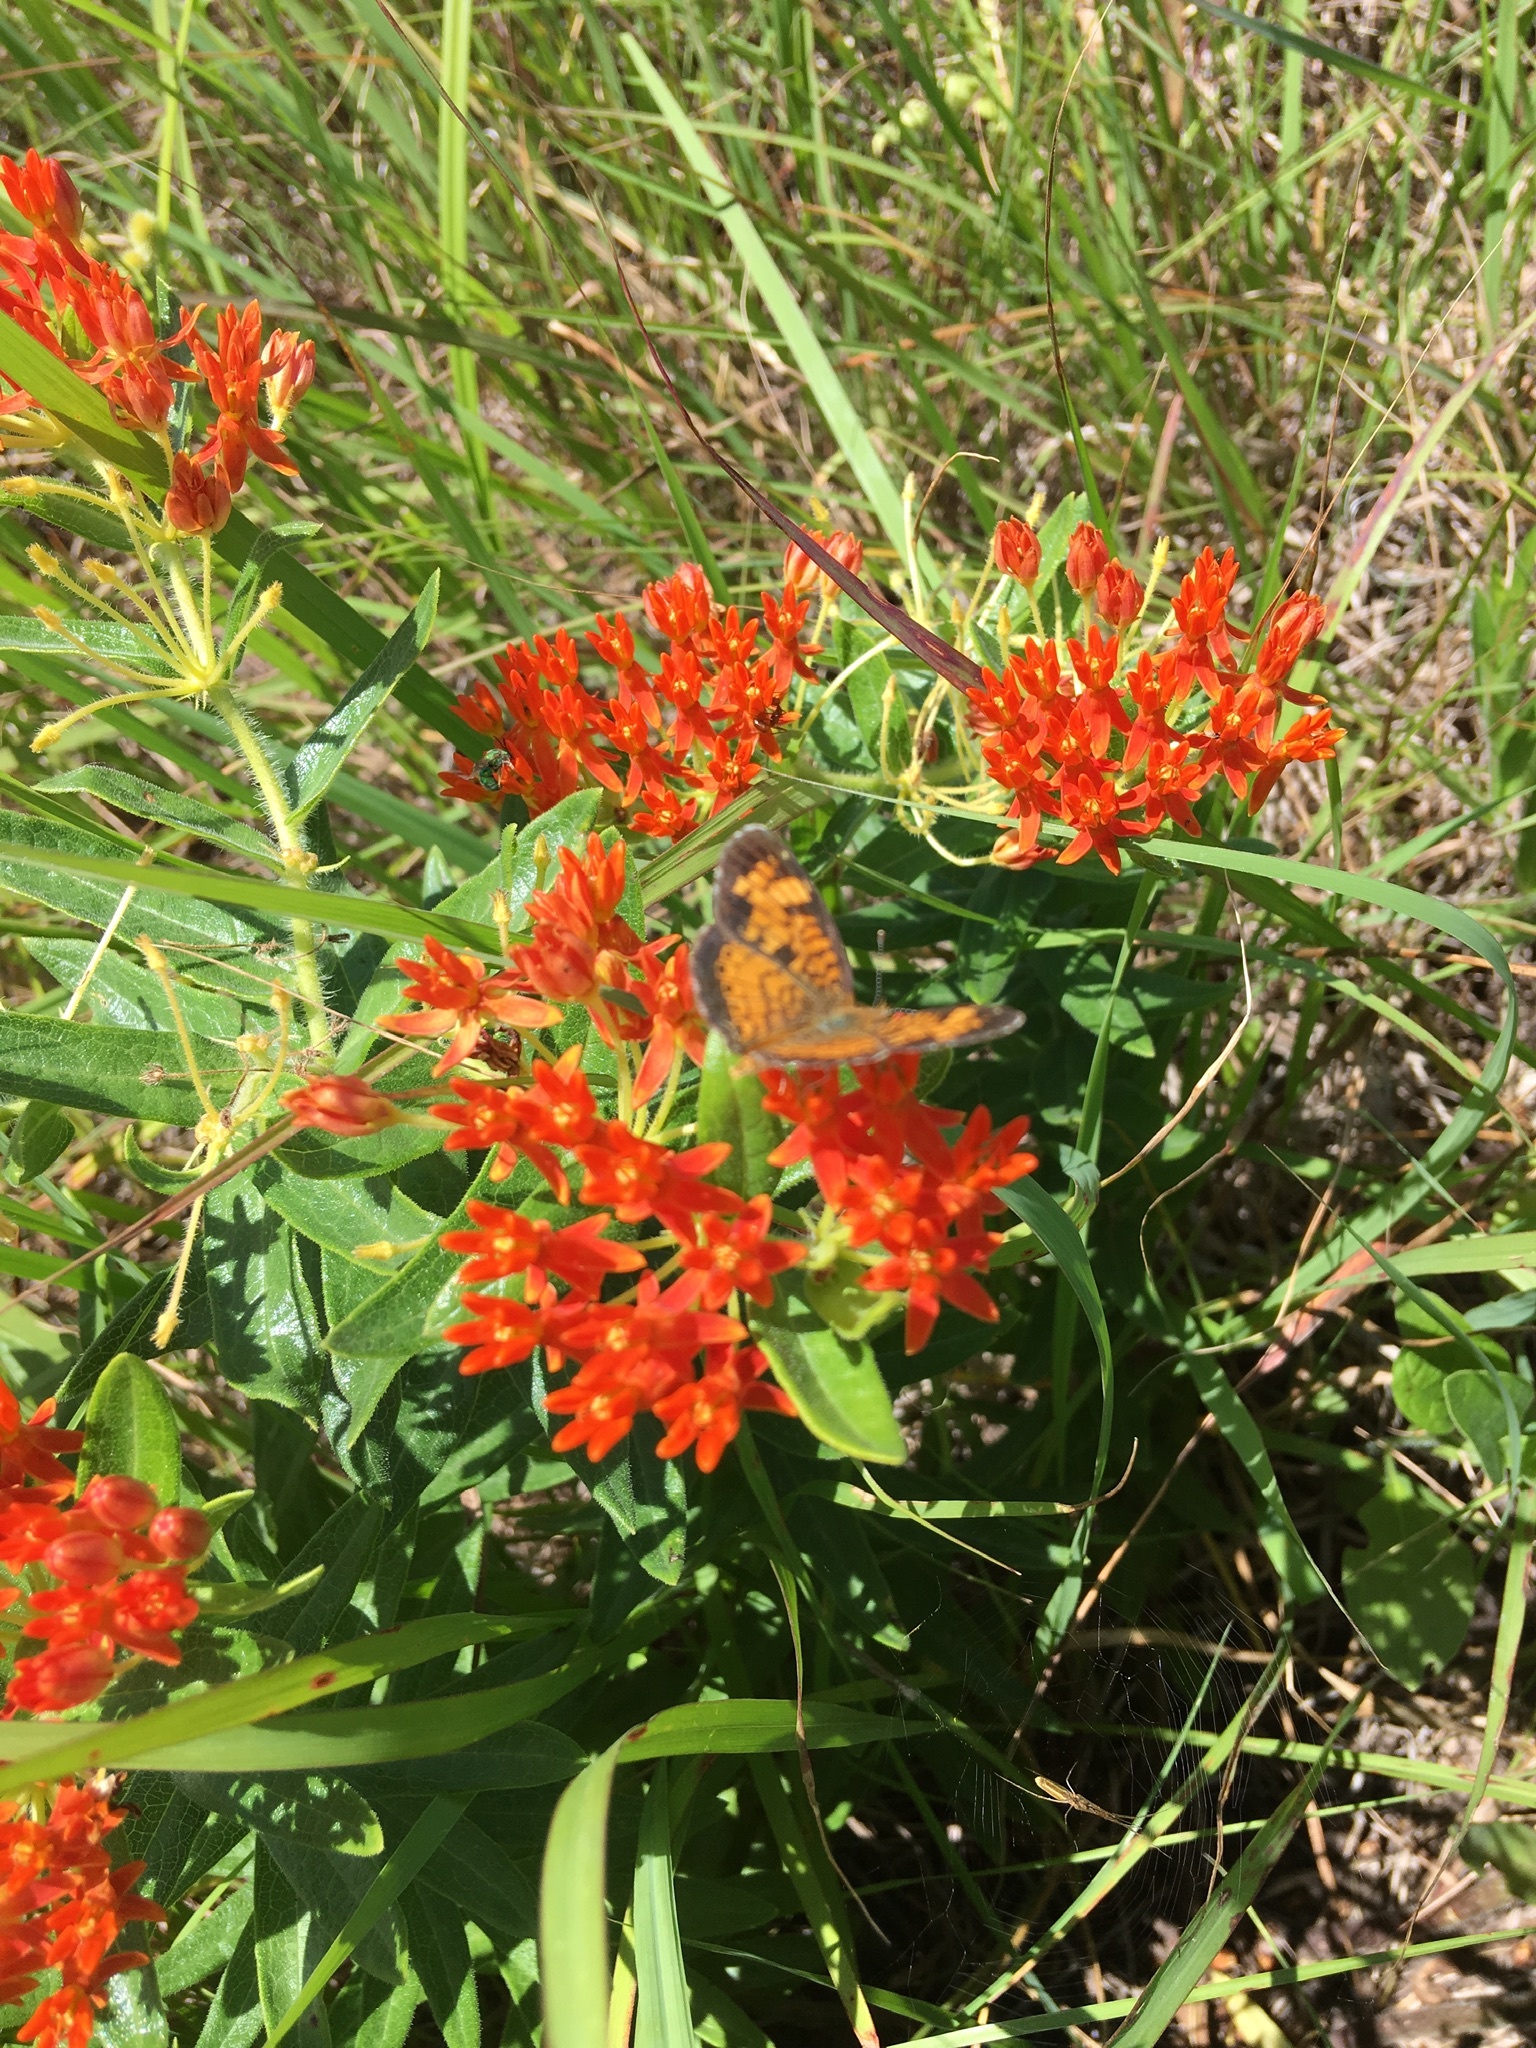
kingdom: Plantae
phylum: Tracheophyta
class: Magnoliopsida
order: Gentianales
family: Apocynaceae
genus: Asclepias
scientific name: Asclepias tuberosa
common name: Butterfly milkweed
